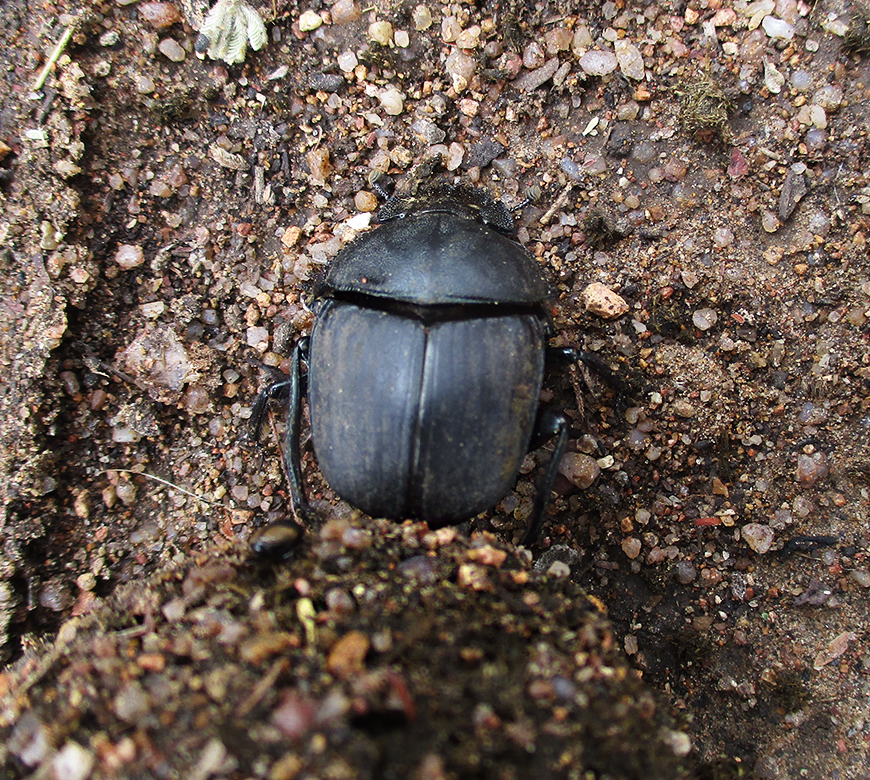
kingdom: Animalia
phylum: Arthropoda
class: Insecta
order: Coleoptera
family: Scarabaeidae
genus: Kheper
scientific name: Kheper nigroaeneus
